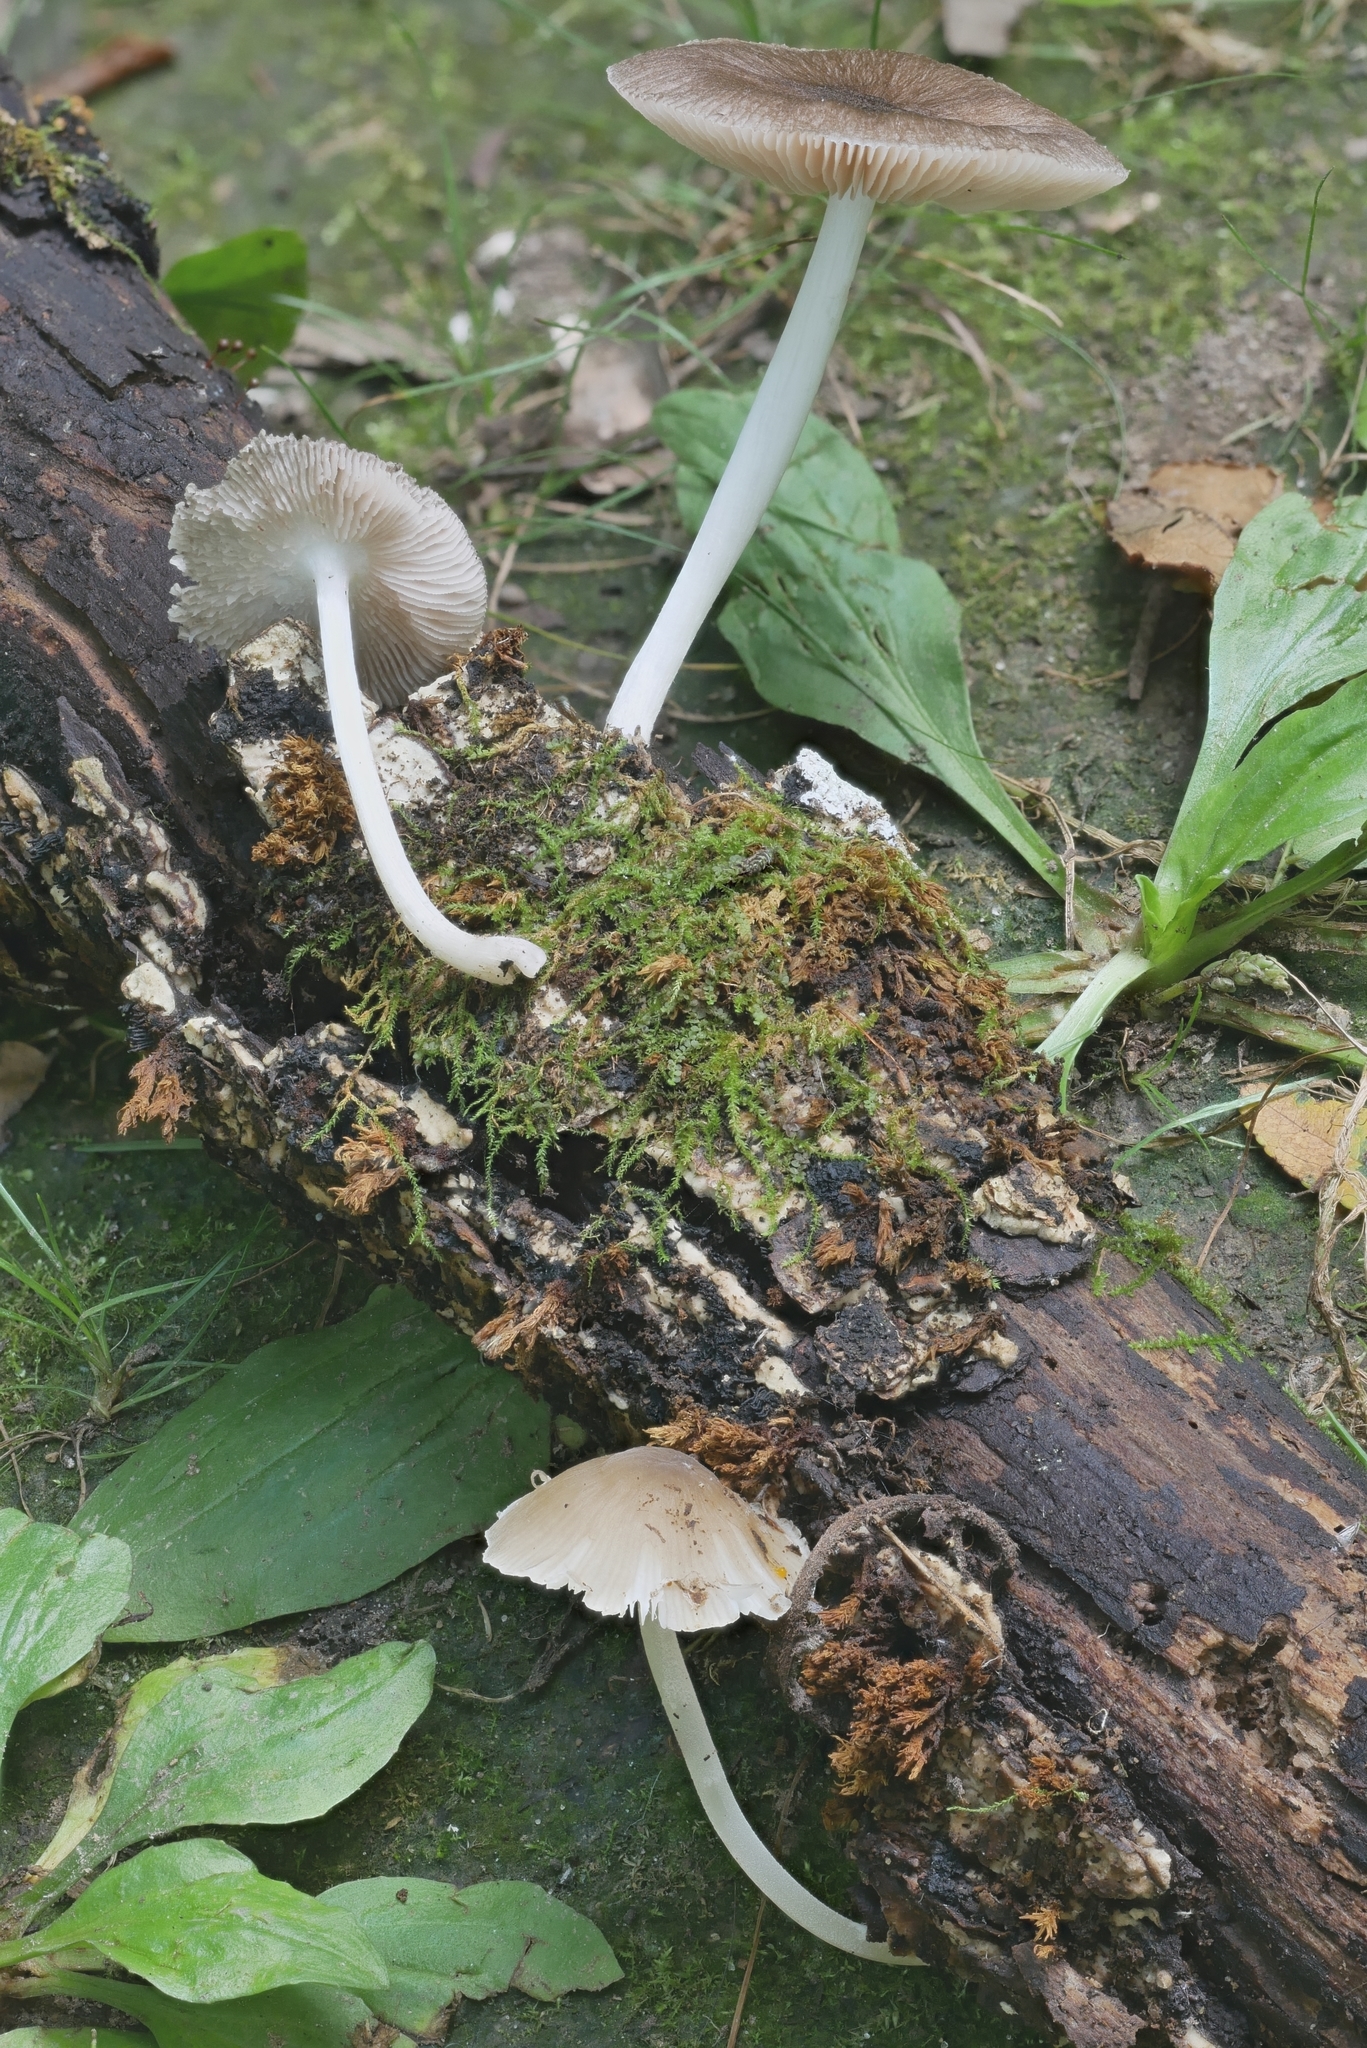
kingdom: Fungi
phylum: Basidiomycota
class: Agaricomycetes
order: Agaricales
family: Pluteaceae
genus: Pluteus
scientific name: Pluteus septocystidiatus
